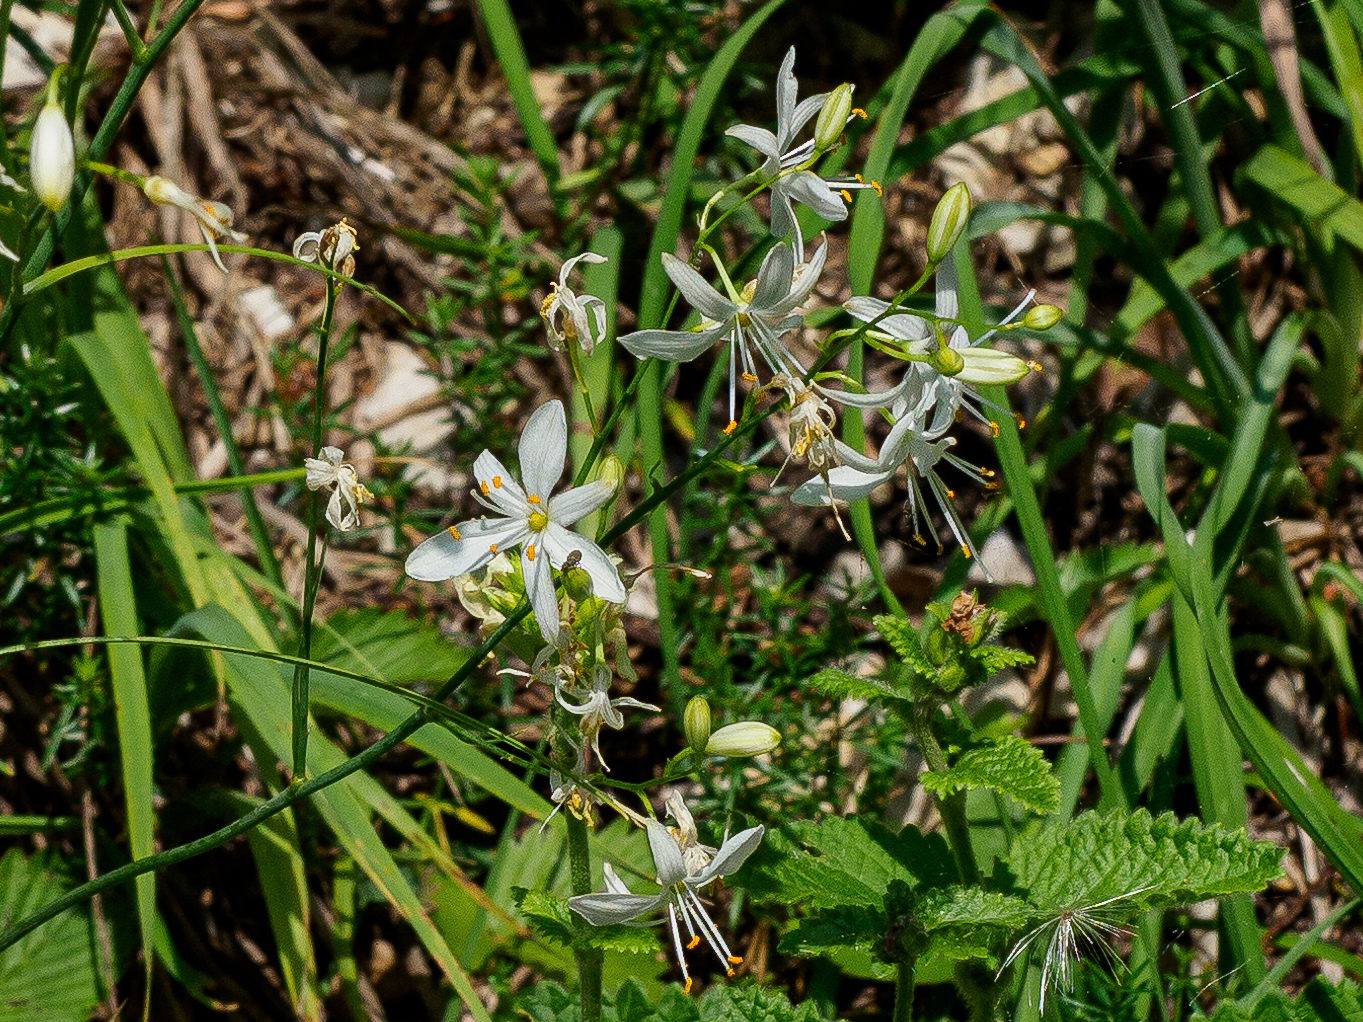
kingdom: Plantae
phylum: Tracheophyta
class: Liliopsida
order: Asparagales
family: Asparagaceae
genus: Anthericum
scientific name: Anthericum ramosum
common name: Branched st. bernard's-lily
